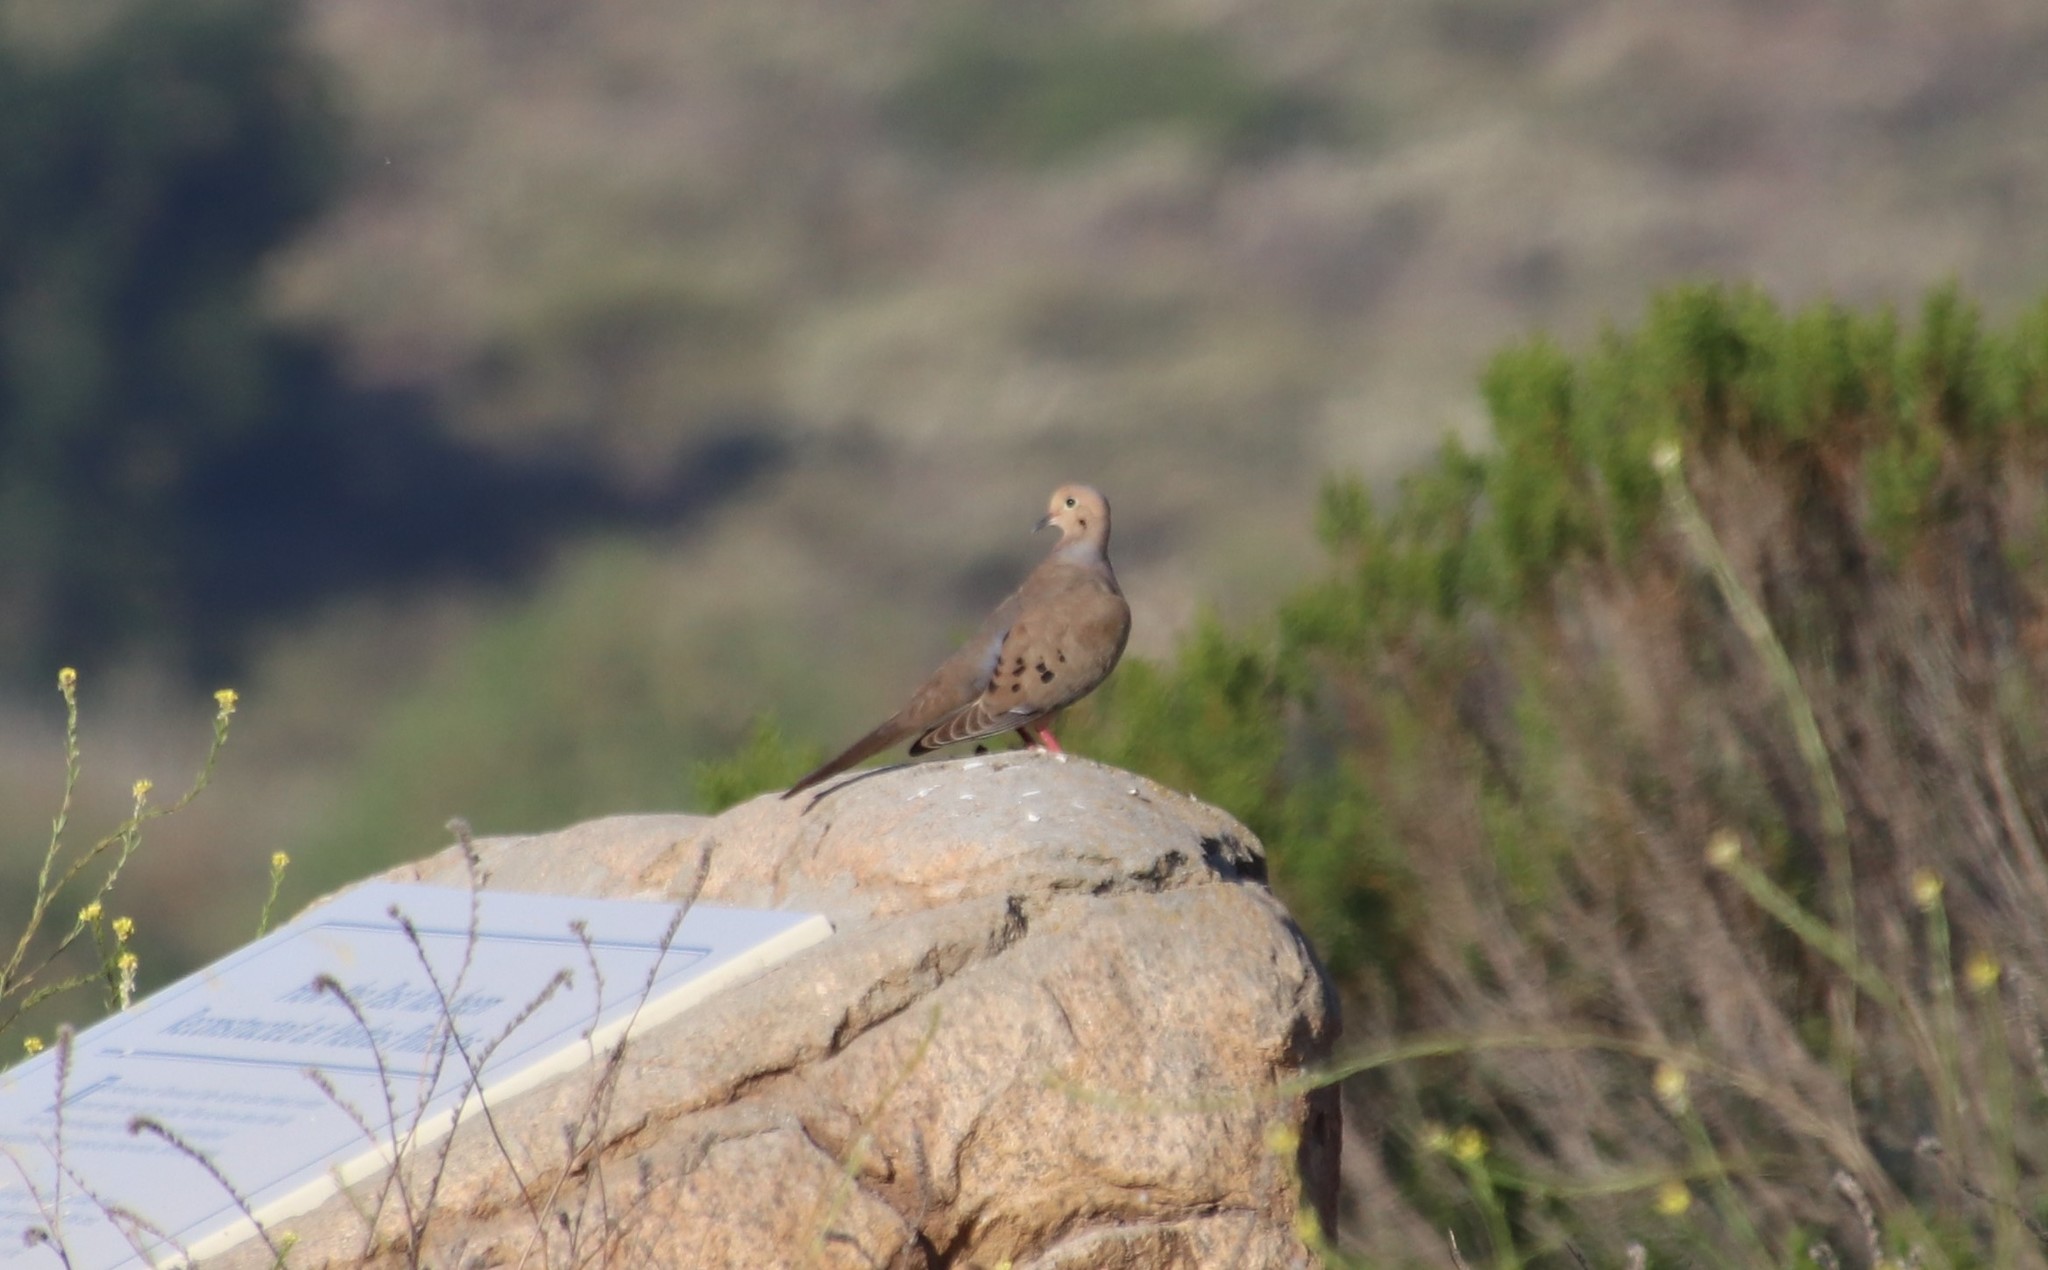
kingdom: Animalia
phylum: Chordata
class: Aves
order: Columbiformes
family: Columbidae
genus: Zenaida
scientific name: Zenaida macroura
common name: Mourning dove
